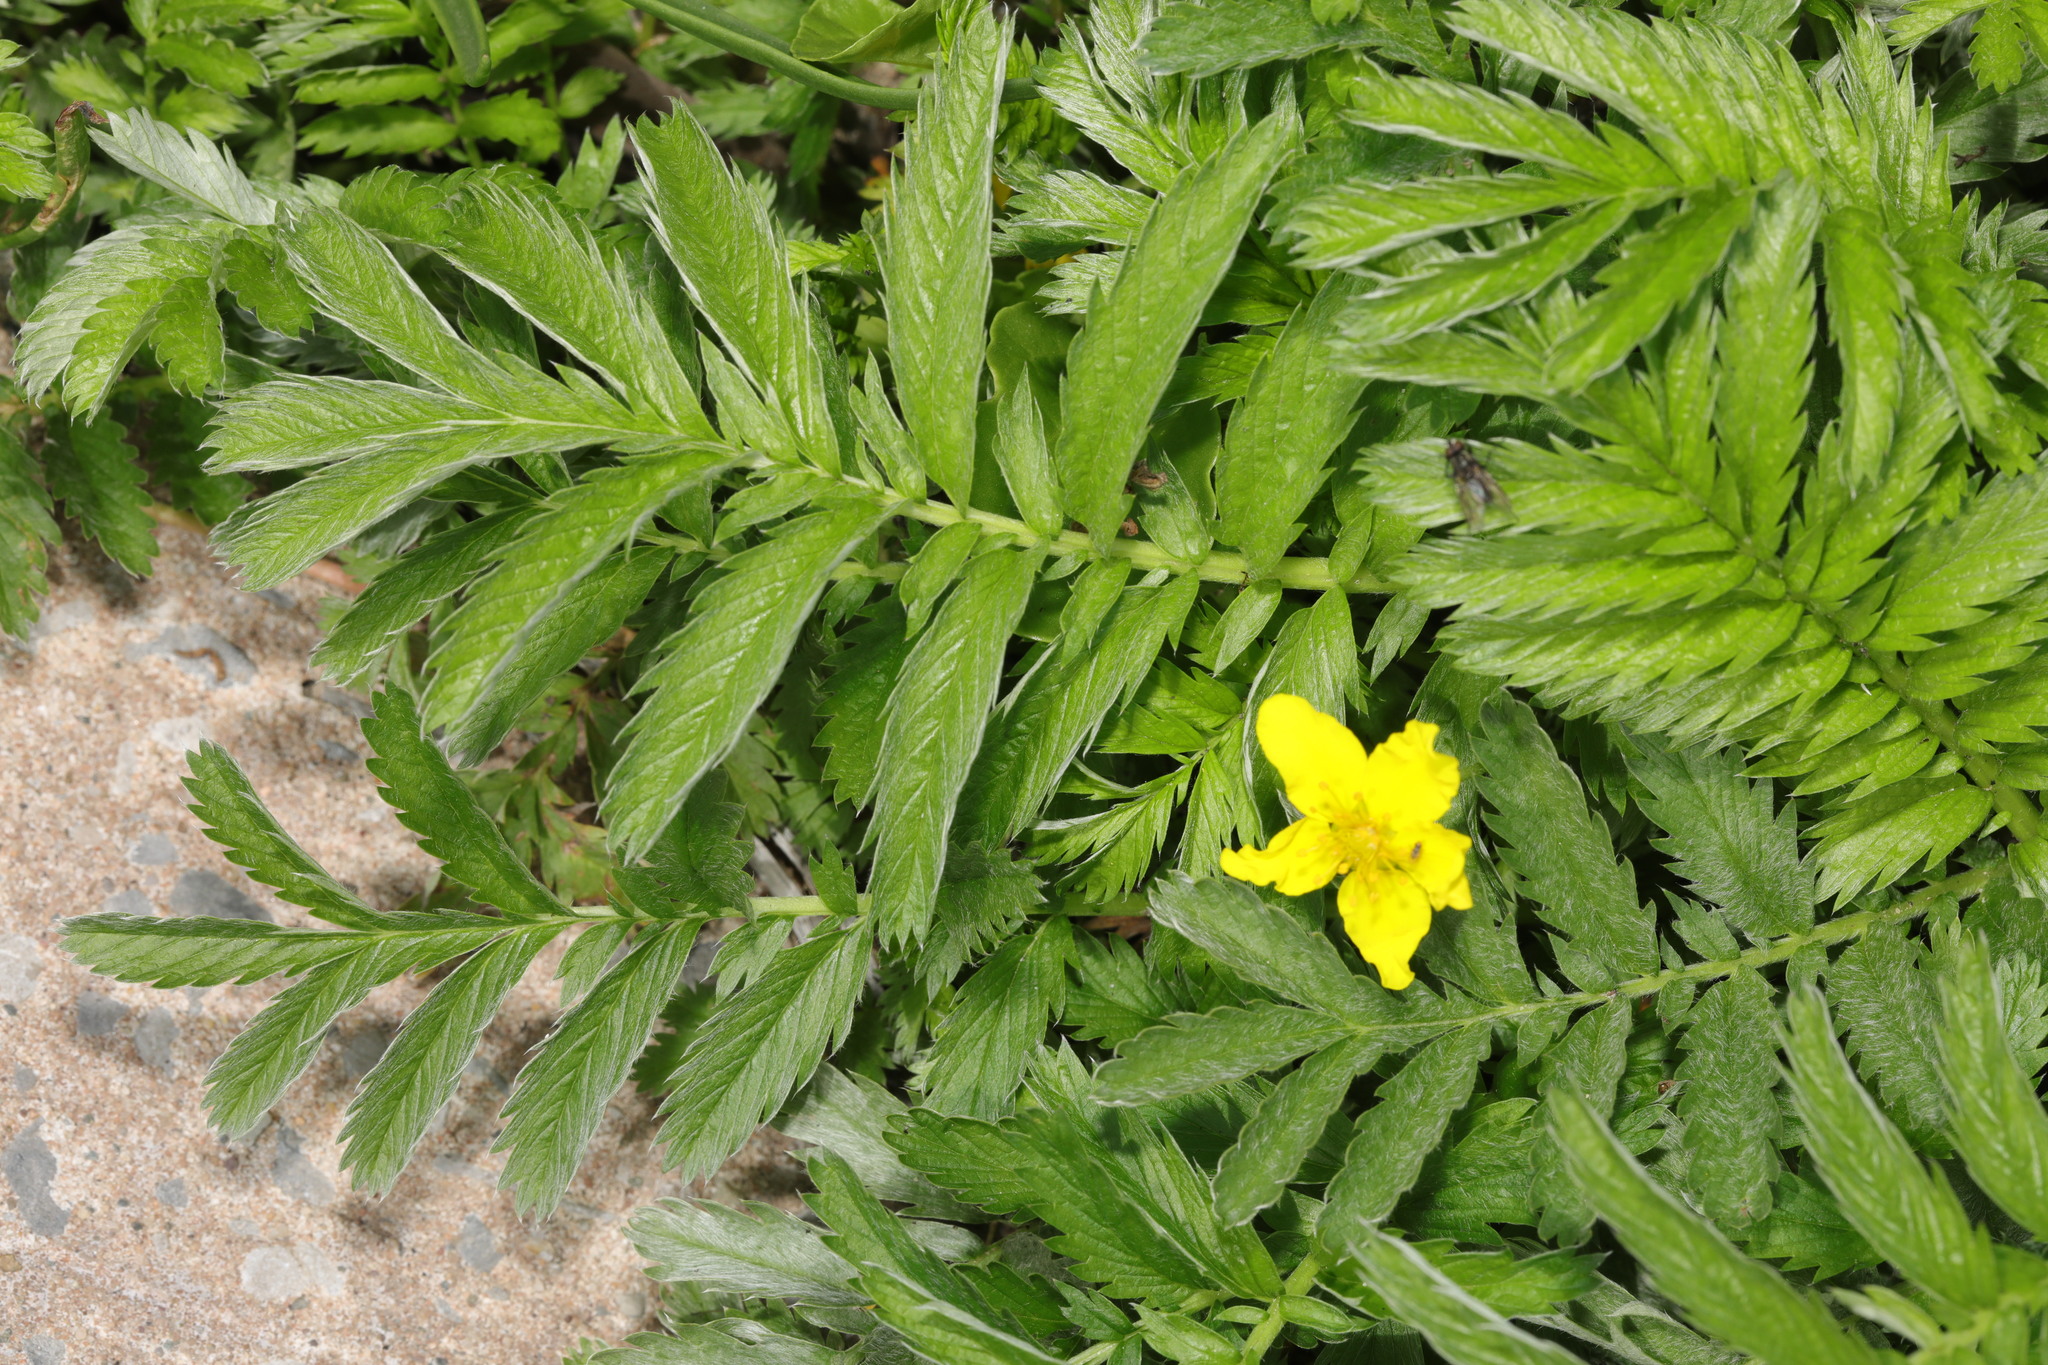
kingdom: Plantae
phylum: Tracheophyta
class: Magnoliopsida
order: Rosales
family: Rosaceae
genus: Argentina
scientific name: Argentina anserina
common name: Common silverweed
